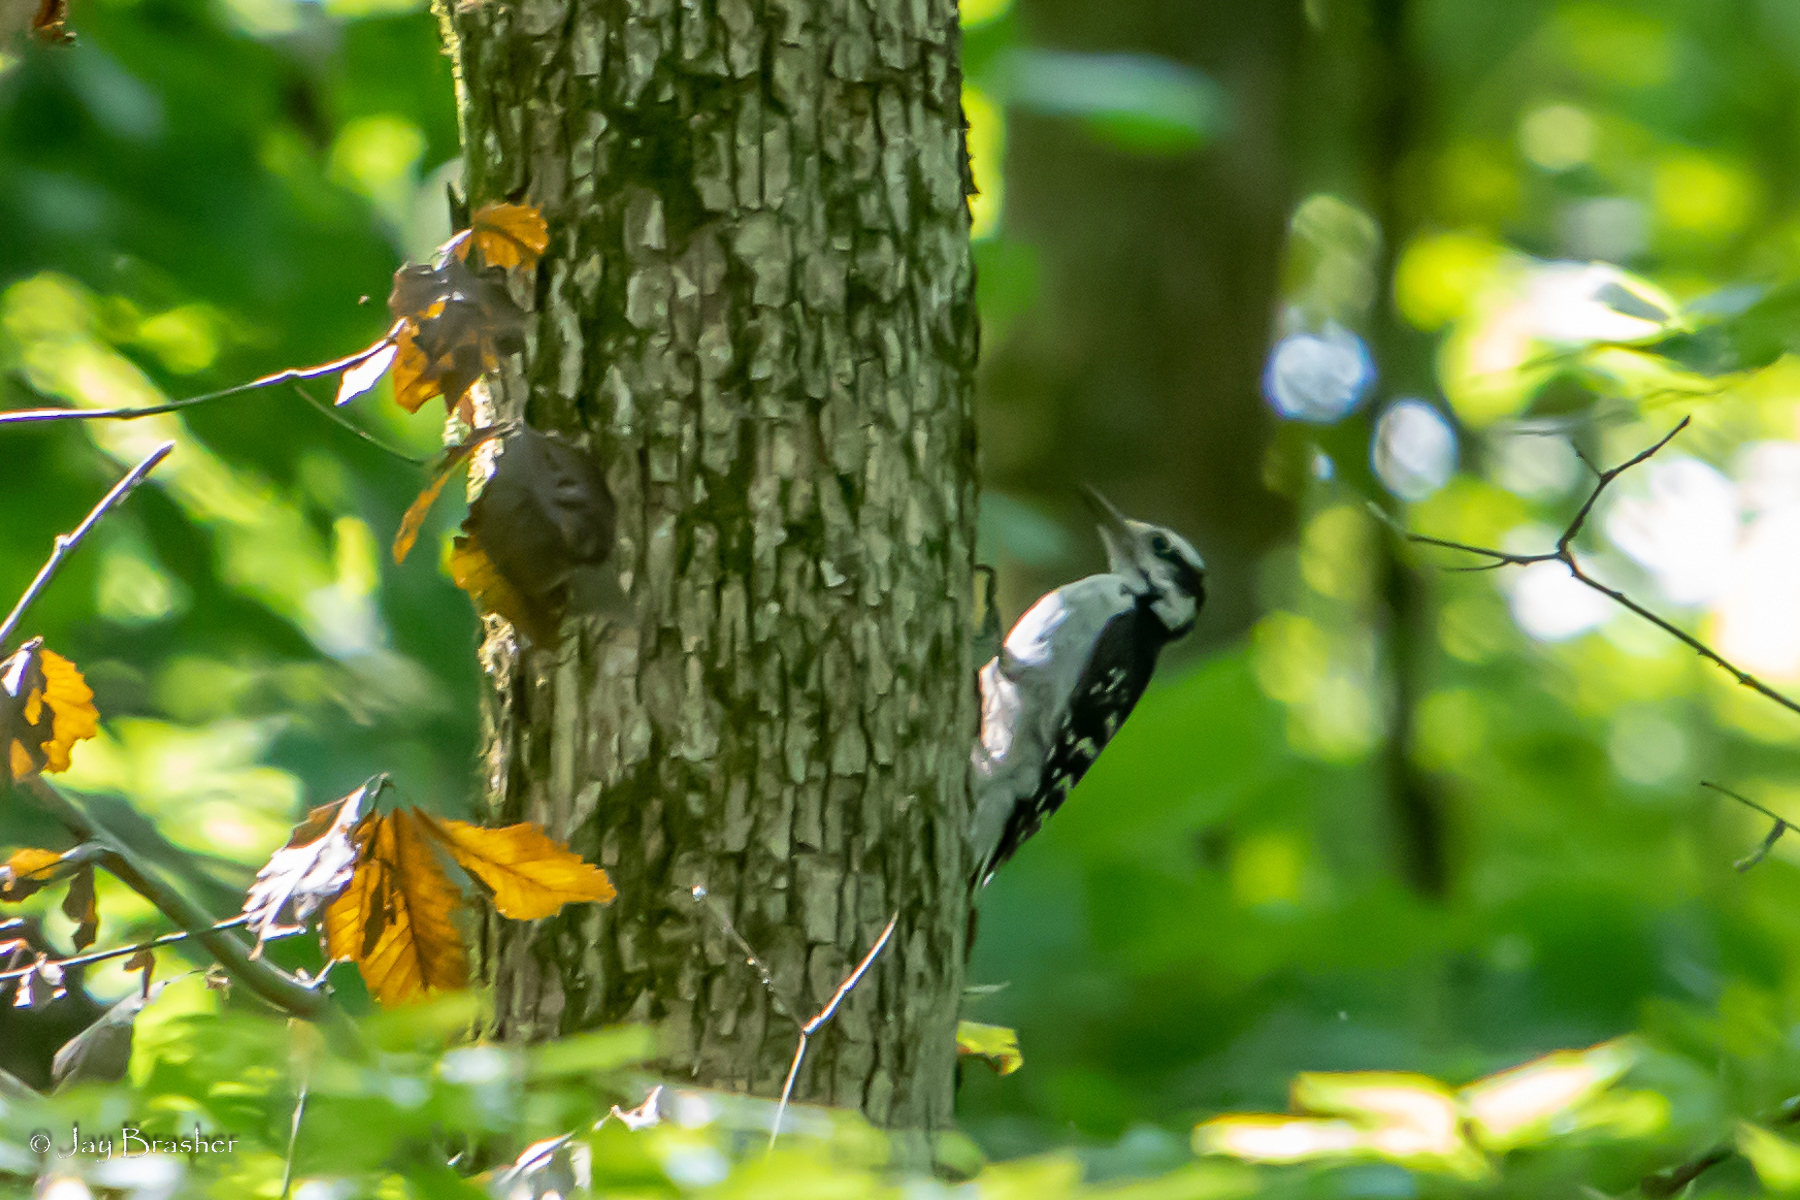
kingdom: Animalia
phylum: Chordata
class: Aves
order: Piciformes
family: Picidae
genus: Leuconotopicus
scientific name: Leuconotopicus villosus
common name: Hairy woodpecker
